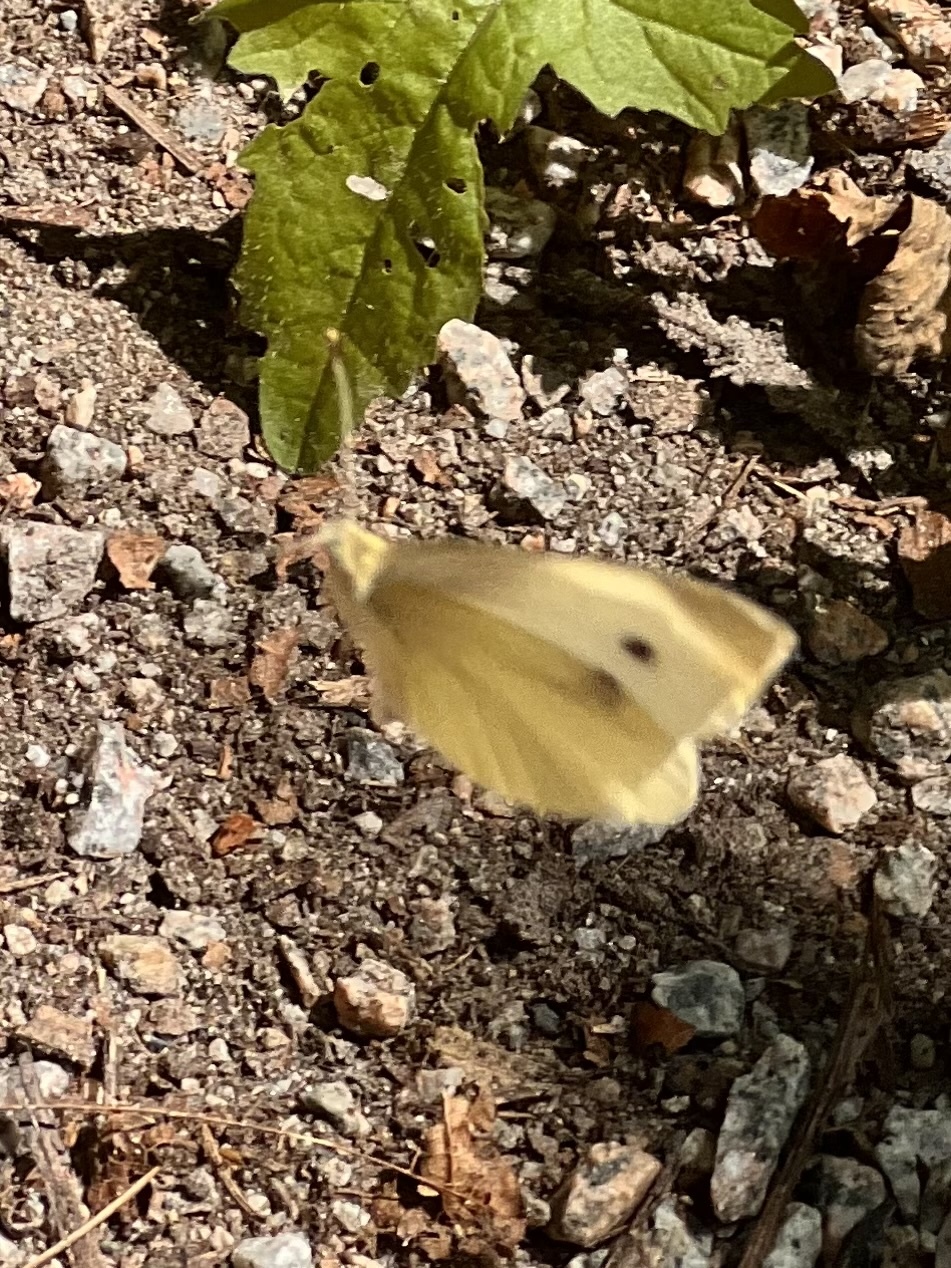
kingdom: Animalia
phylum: Arthropoda
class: Insecta
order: Lepidoptera
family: Pieridae
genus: Pieris
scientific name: Pieris rapae
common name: Small white
